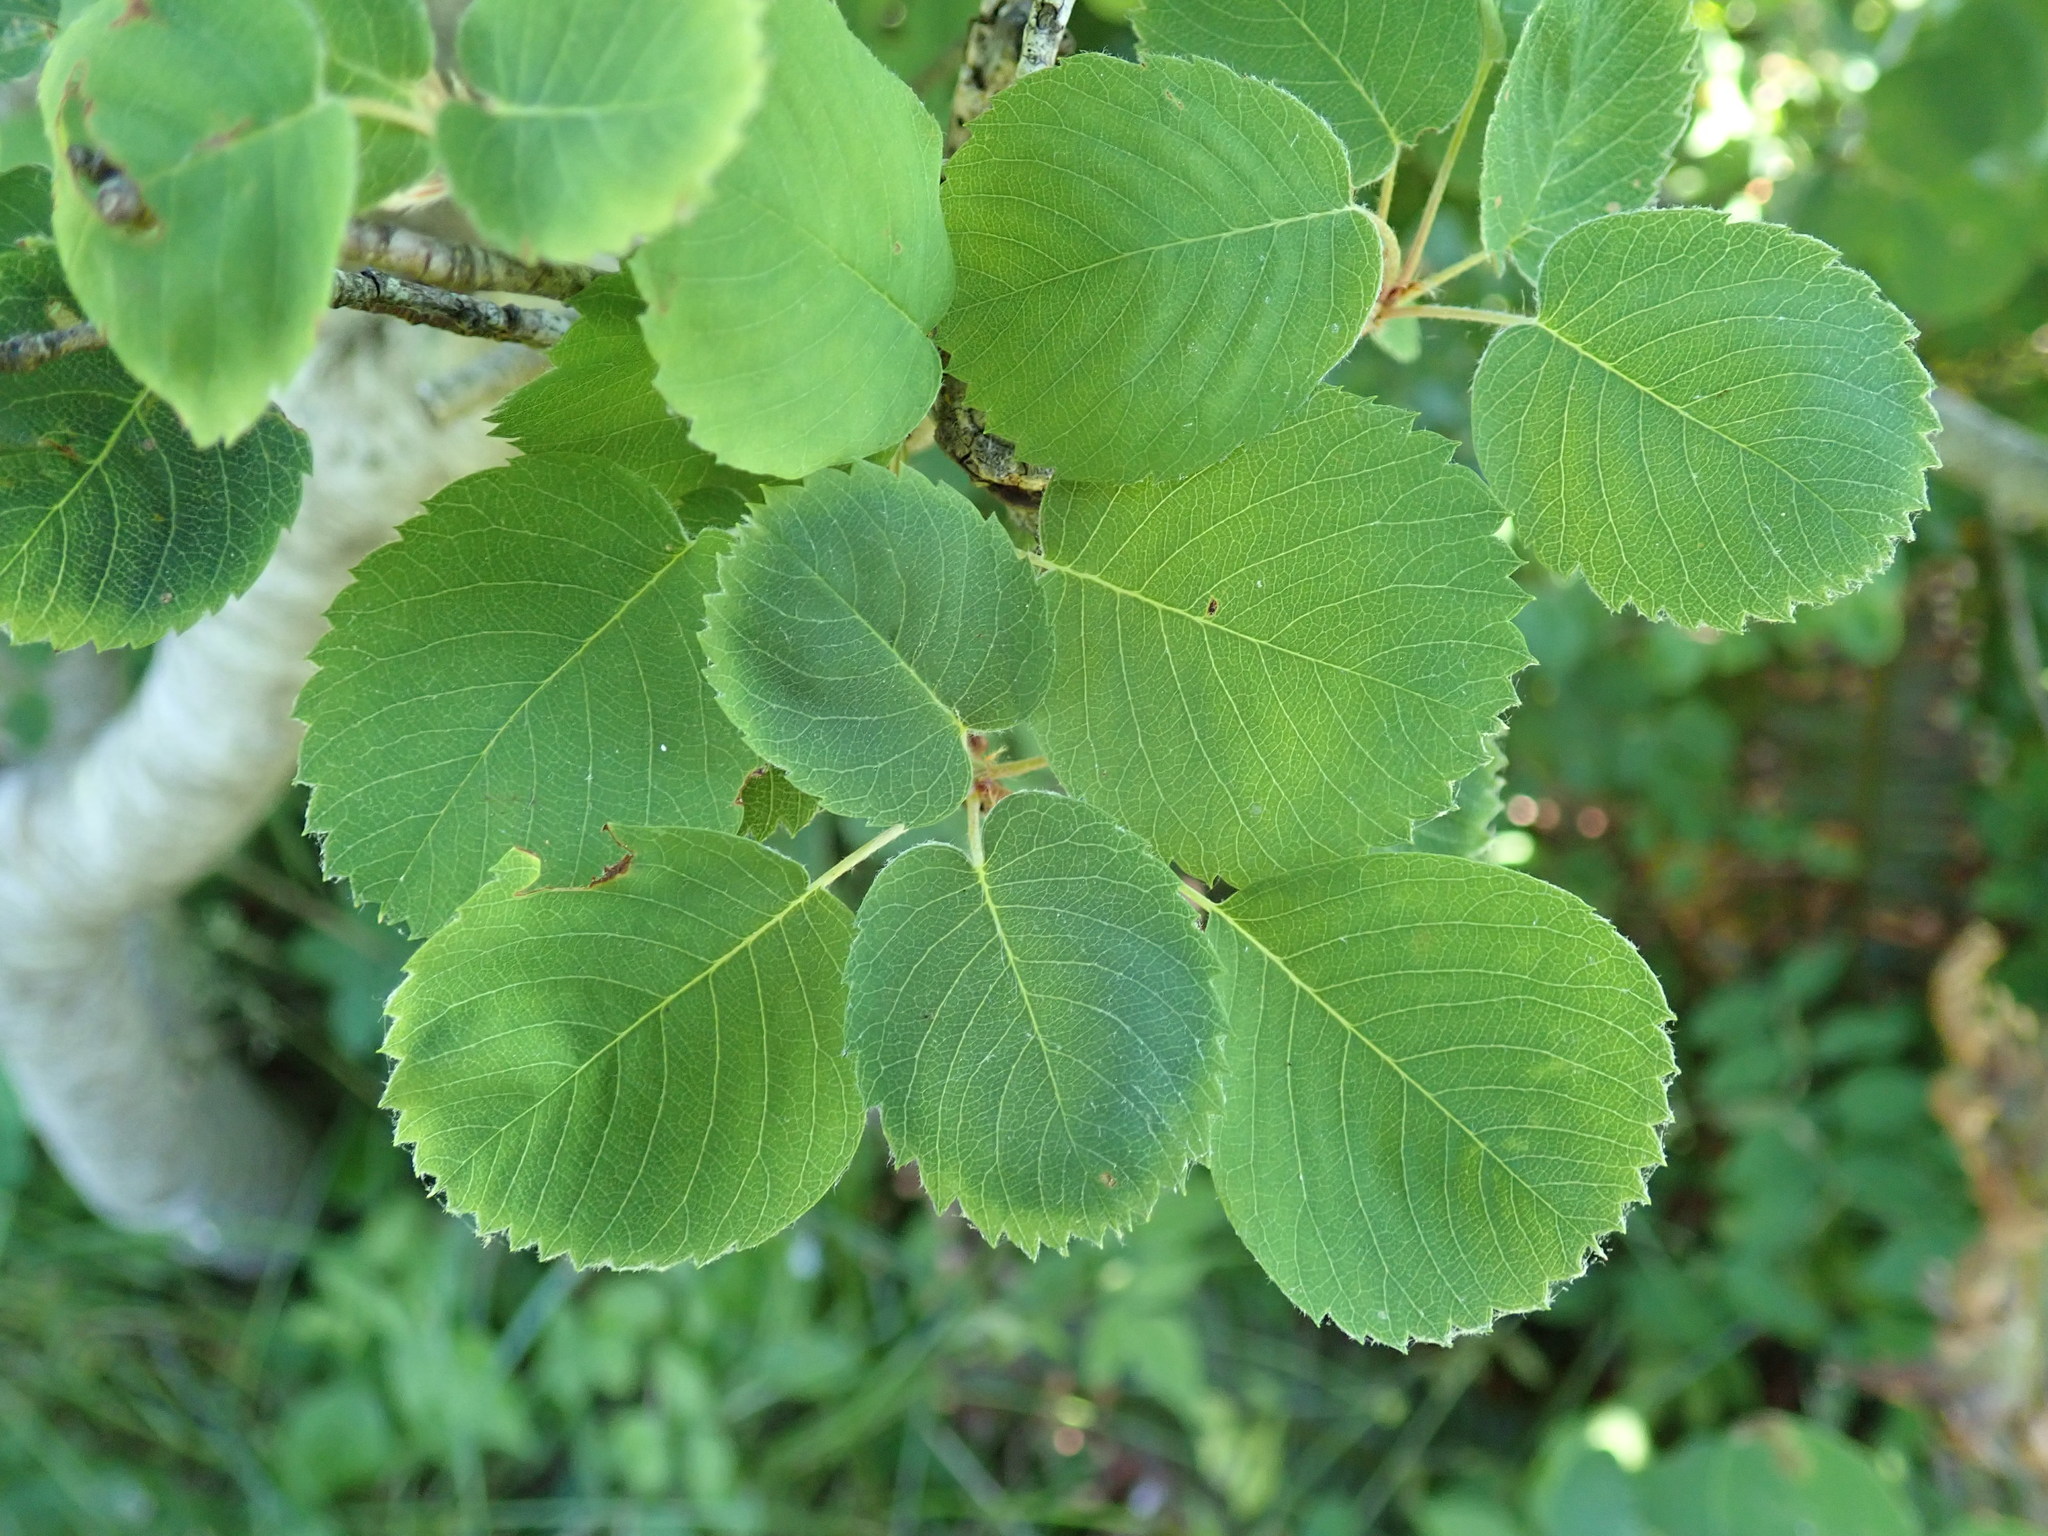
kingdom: Plantae
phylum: Tracheophyta
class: Magnoliopsida
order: Rosales
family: Rosaceae
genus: Amelanchier
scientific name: Amelanchier alnifolia
